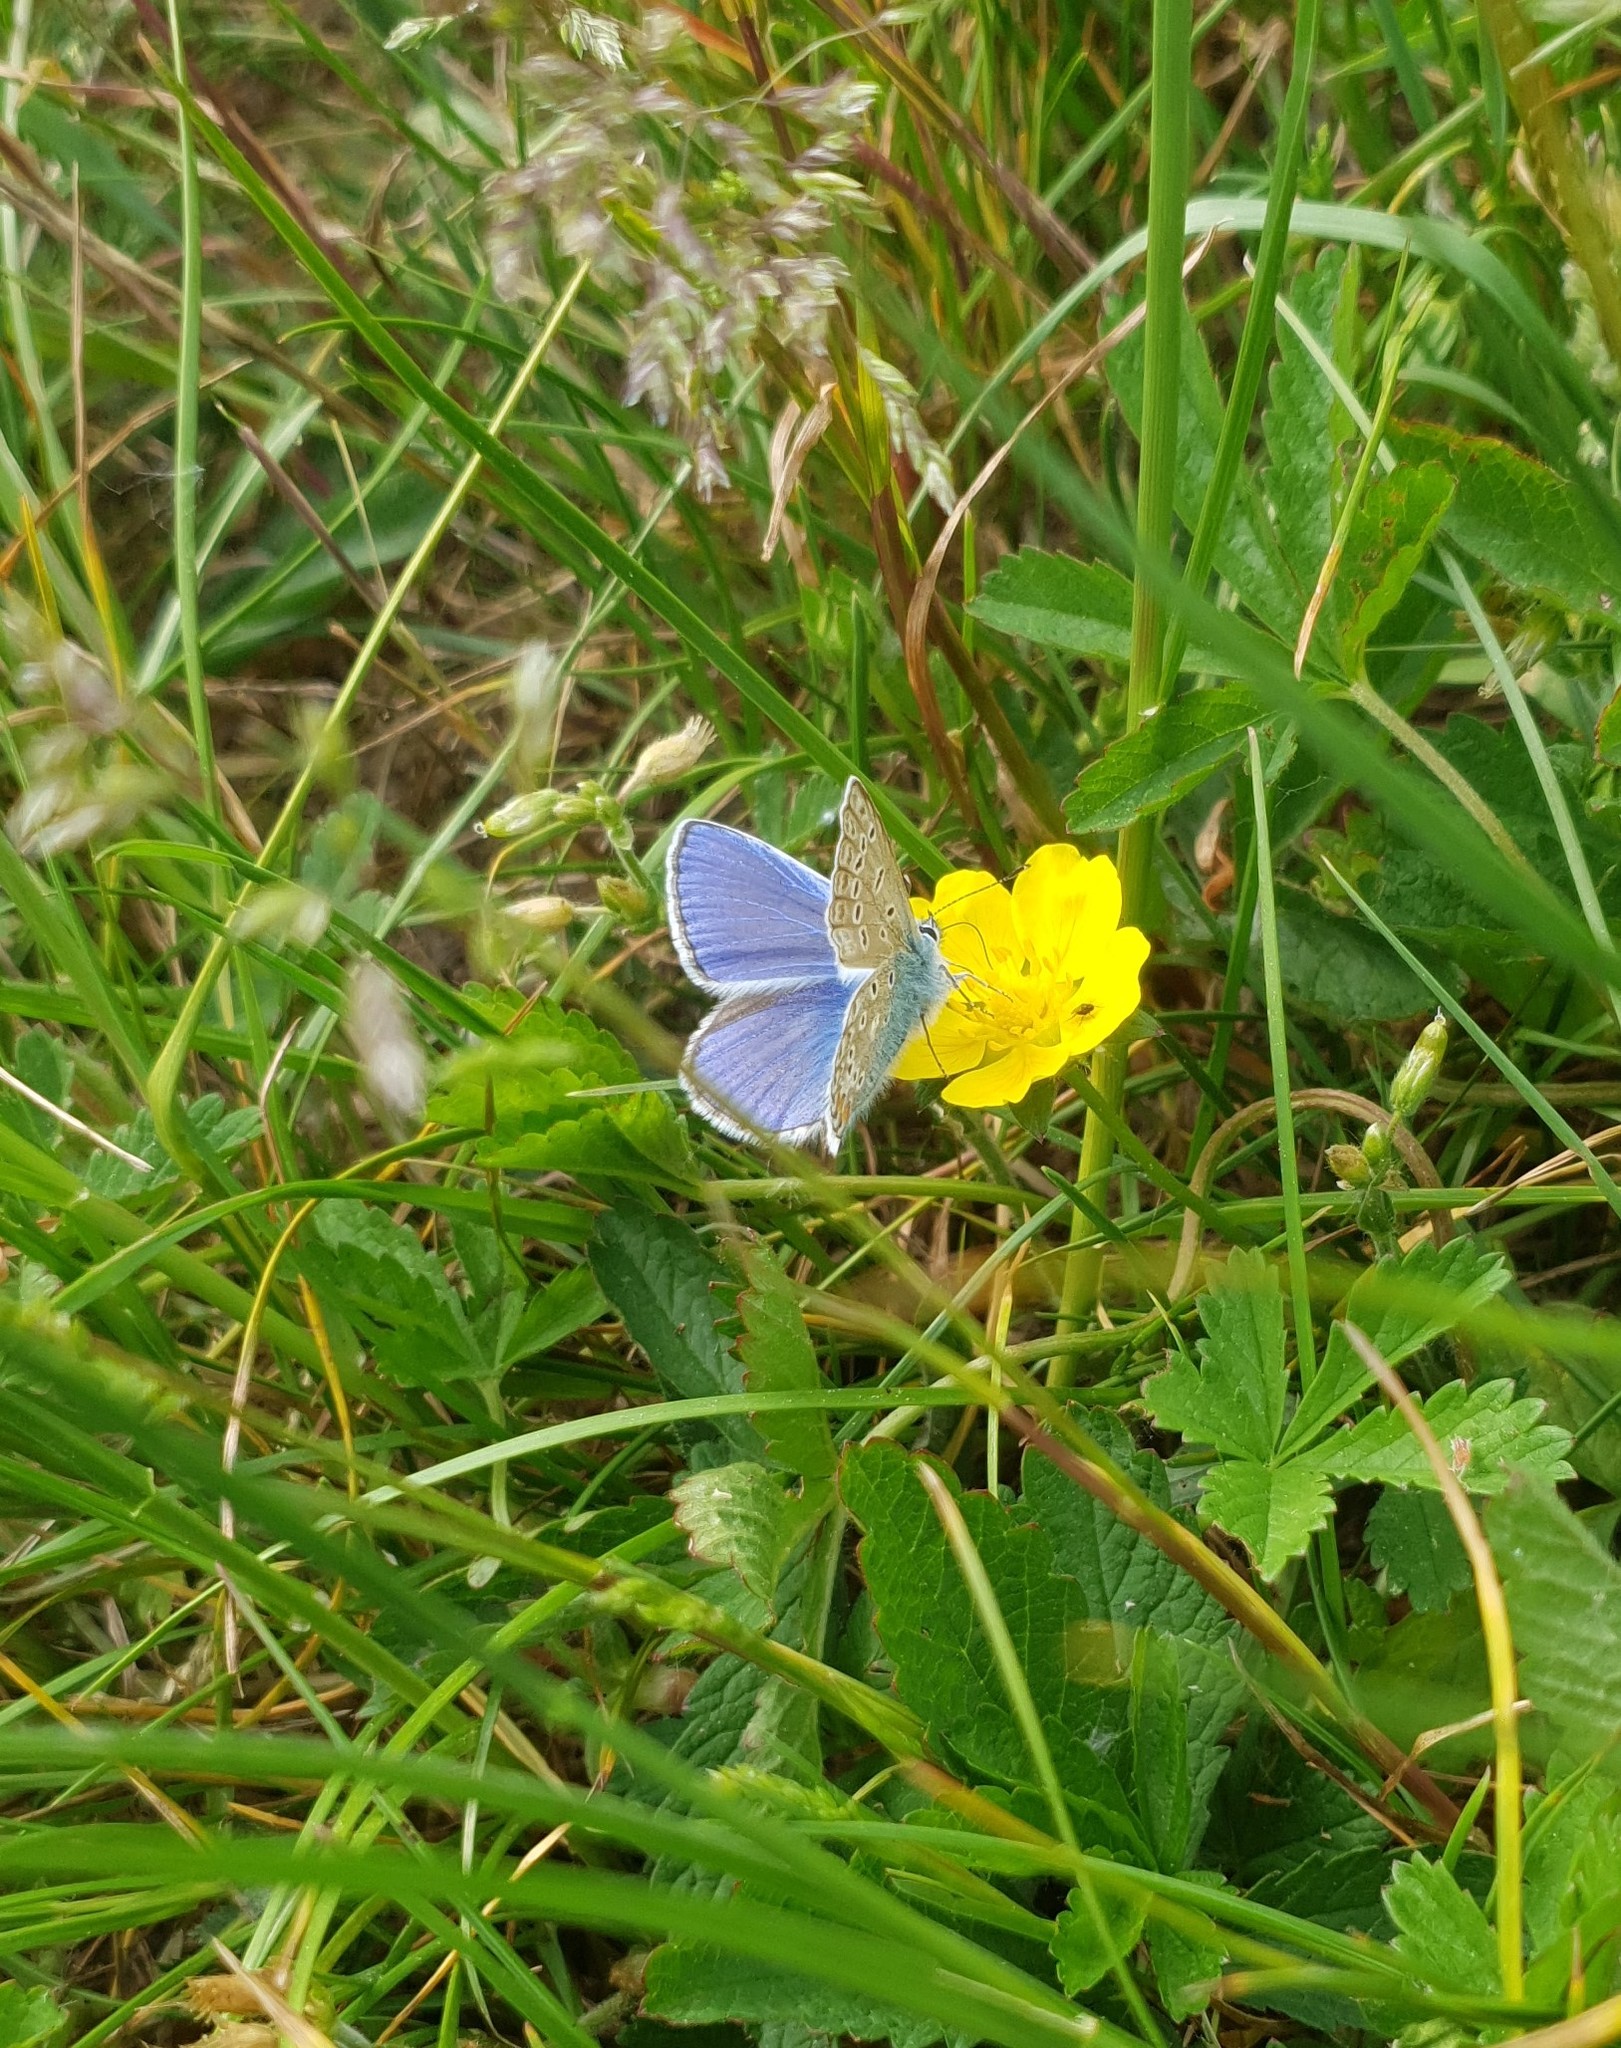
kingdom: Animalia
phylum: Arthropoda
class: Insecta
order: Lepidoptera
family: Lycaenidae
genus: Polyommatus
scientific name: Polyommatus icarus
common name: Common blue
